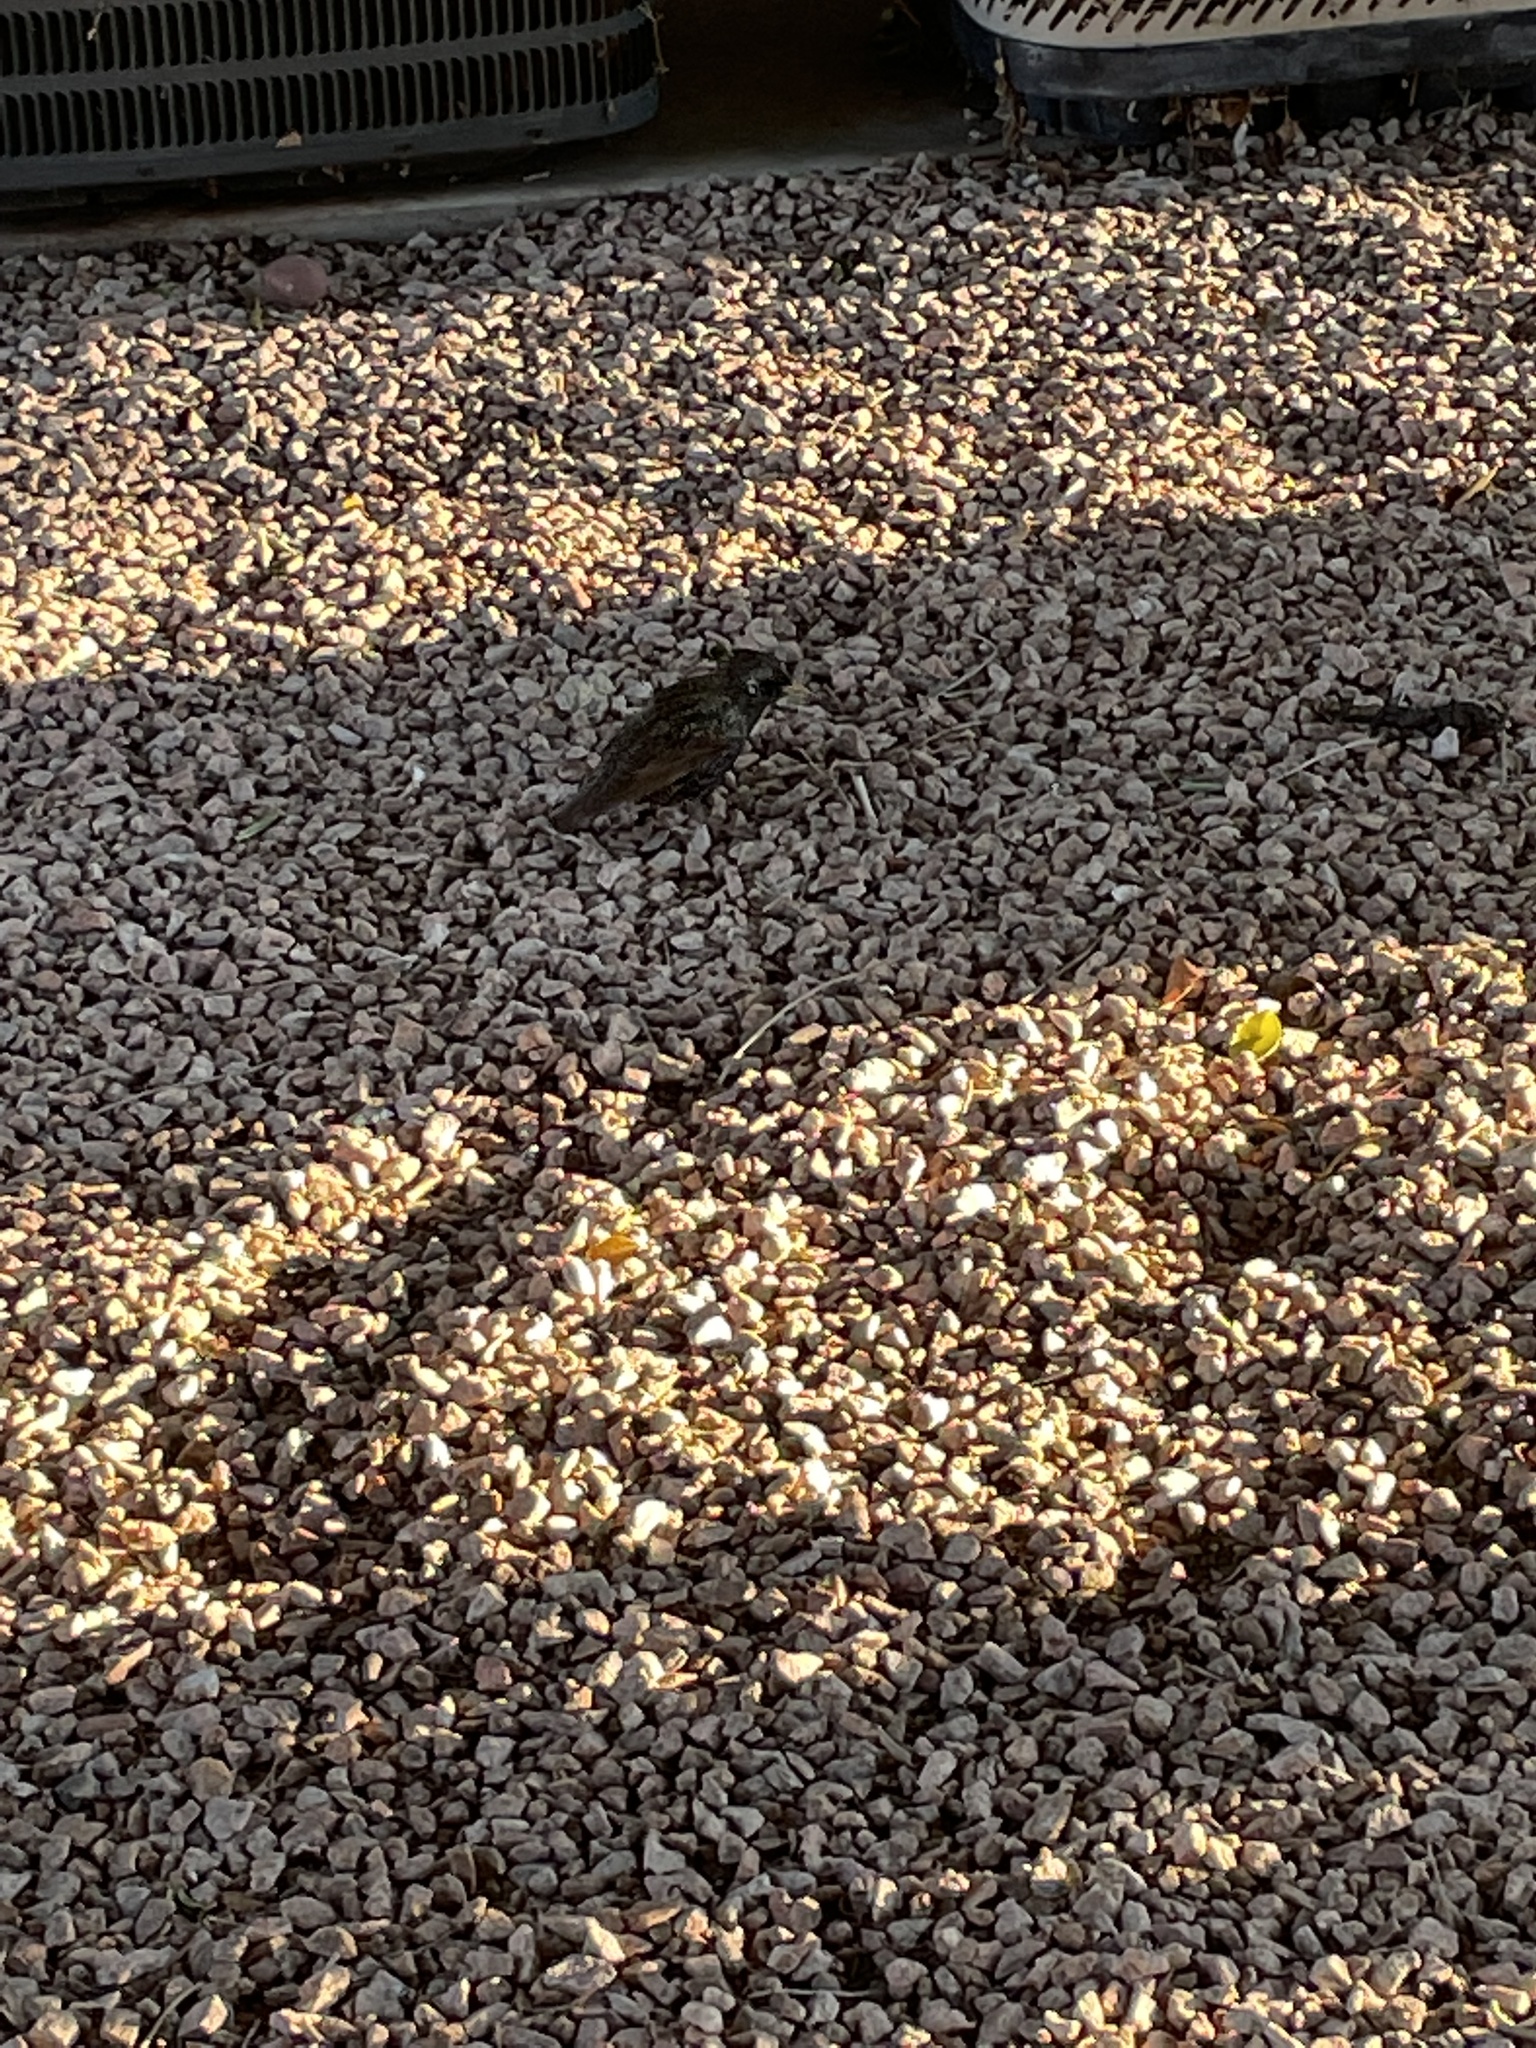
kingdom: Animalia
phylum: Chordata
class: Aves
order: Passeriformes
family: Sturnidae
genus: Sturnus
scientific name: Sturnus vulgaris
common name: Common starling
